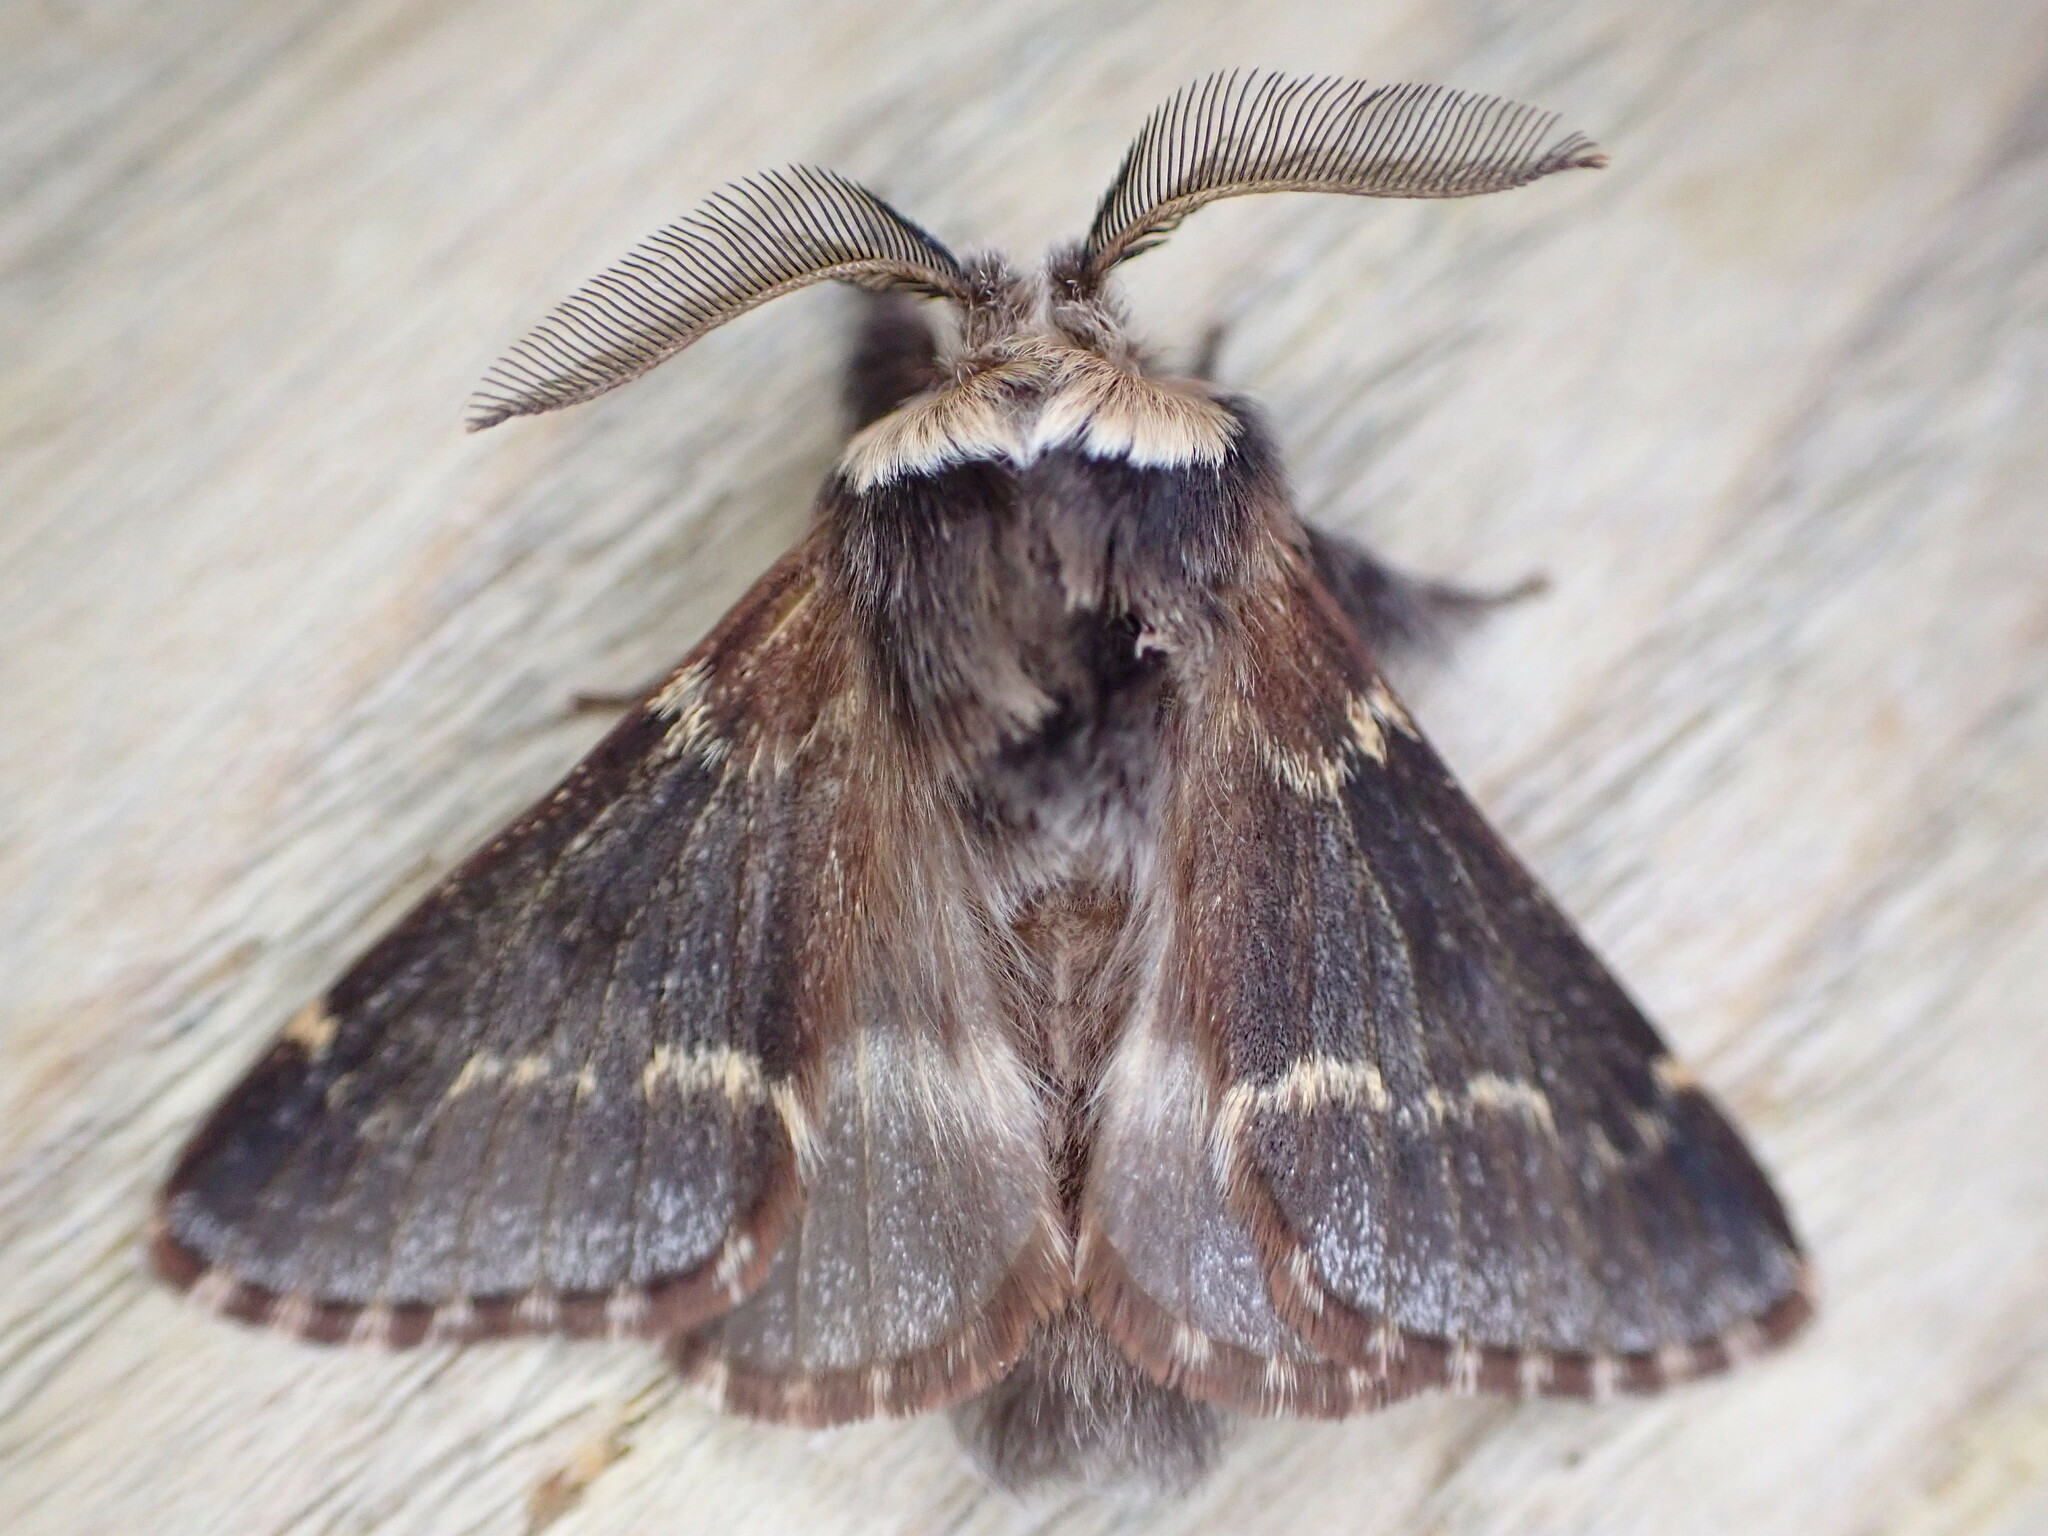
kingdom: Animalia
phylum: Arthropoda
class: Insecta
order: Lepidoptera
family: Lasiocampidae
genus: Poecilocampa
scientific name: Poecilocampa populi
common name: December moth
